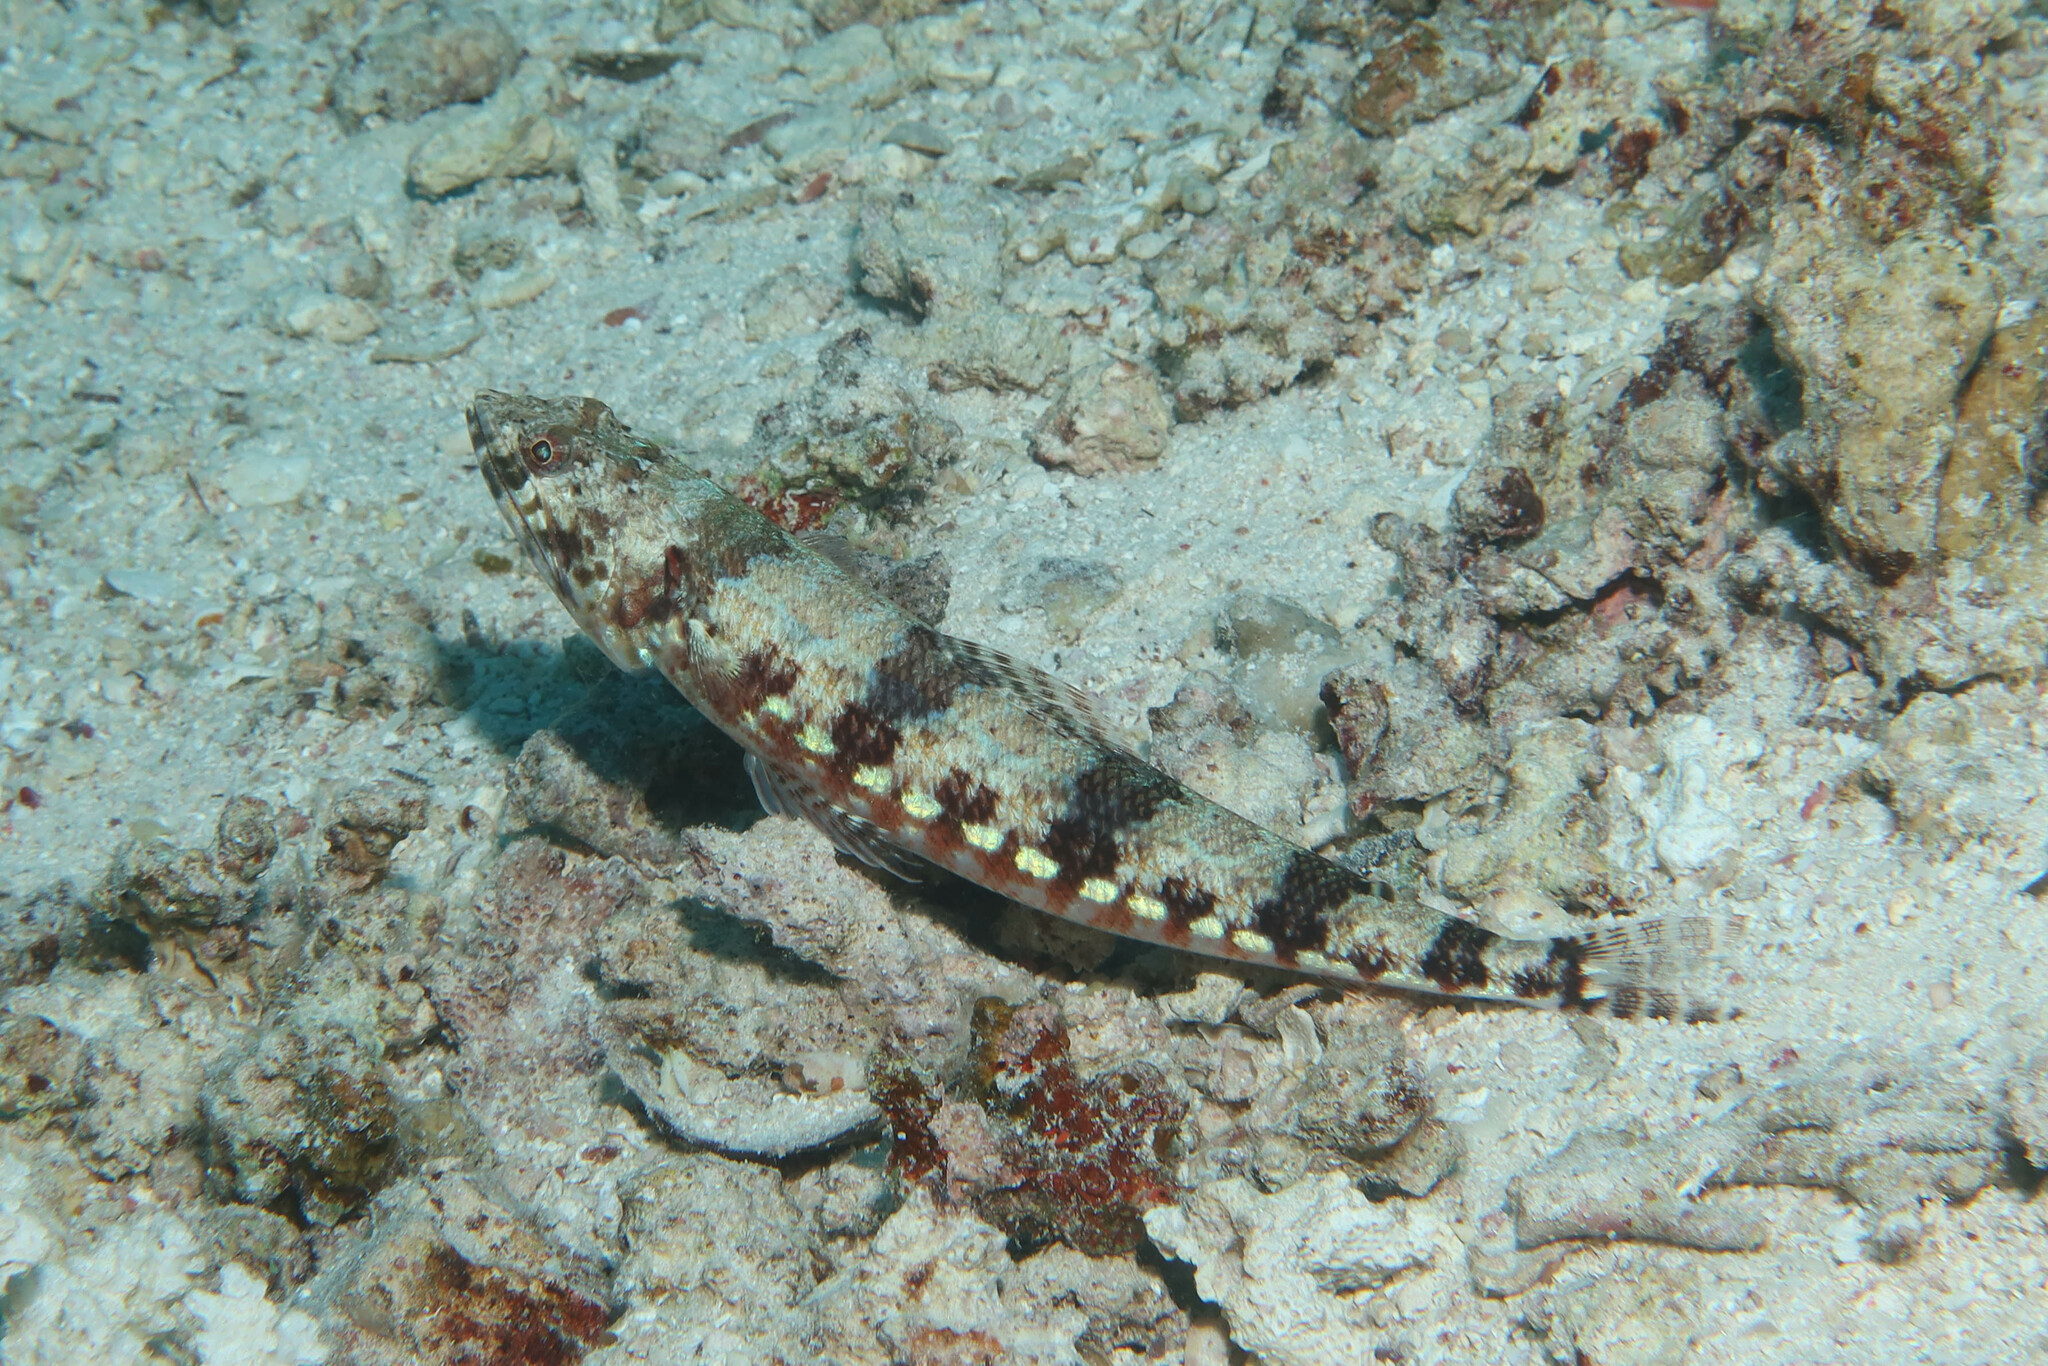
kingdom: Animalia
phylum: Chordata
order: Aulopiformes
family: Synodontidae
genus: Synodus
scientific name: Synodus variegatus
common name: Variegated lizardfish
